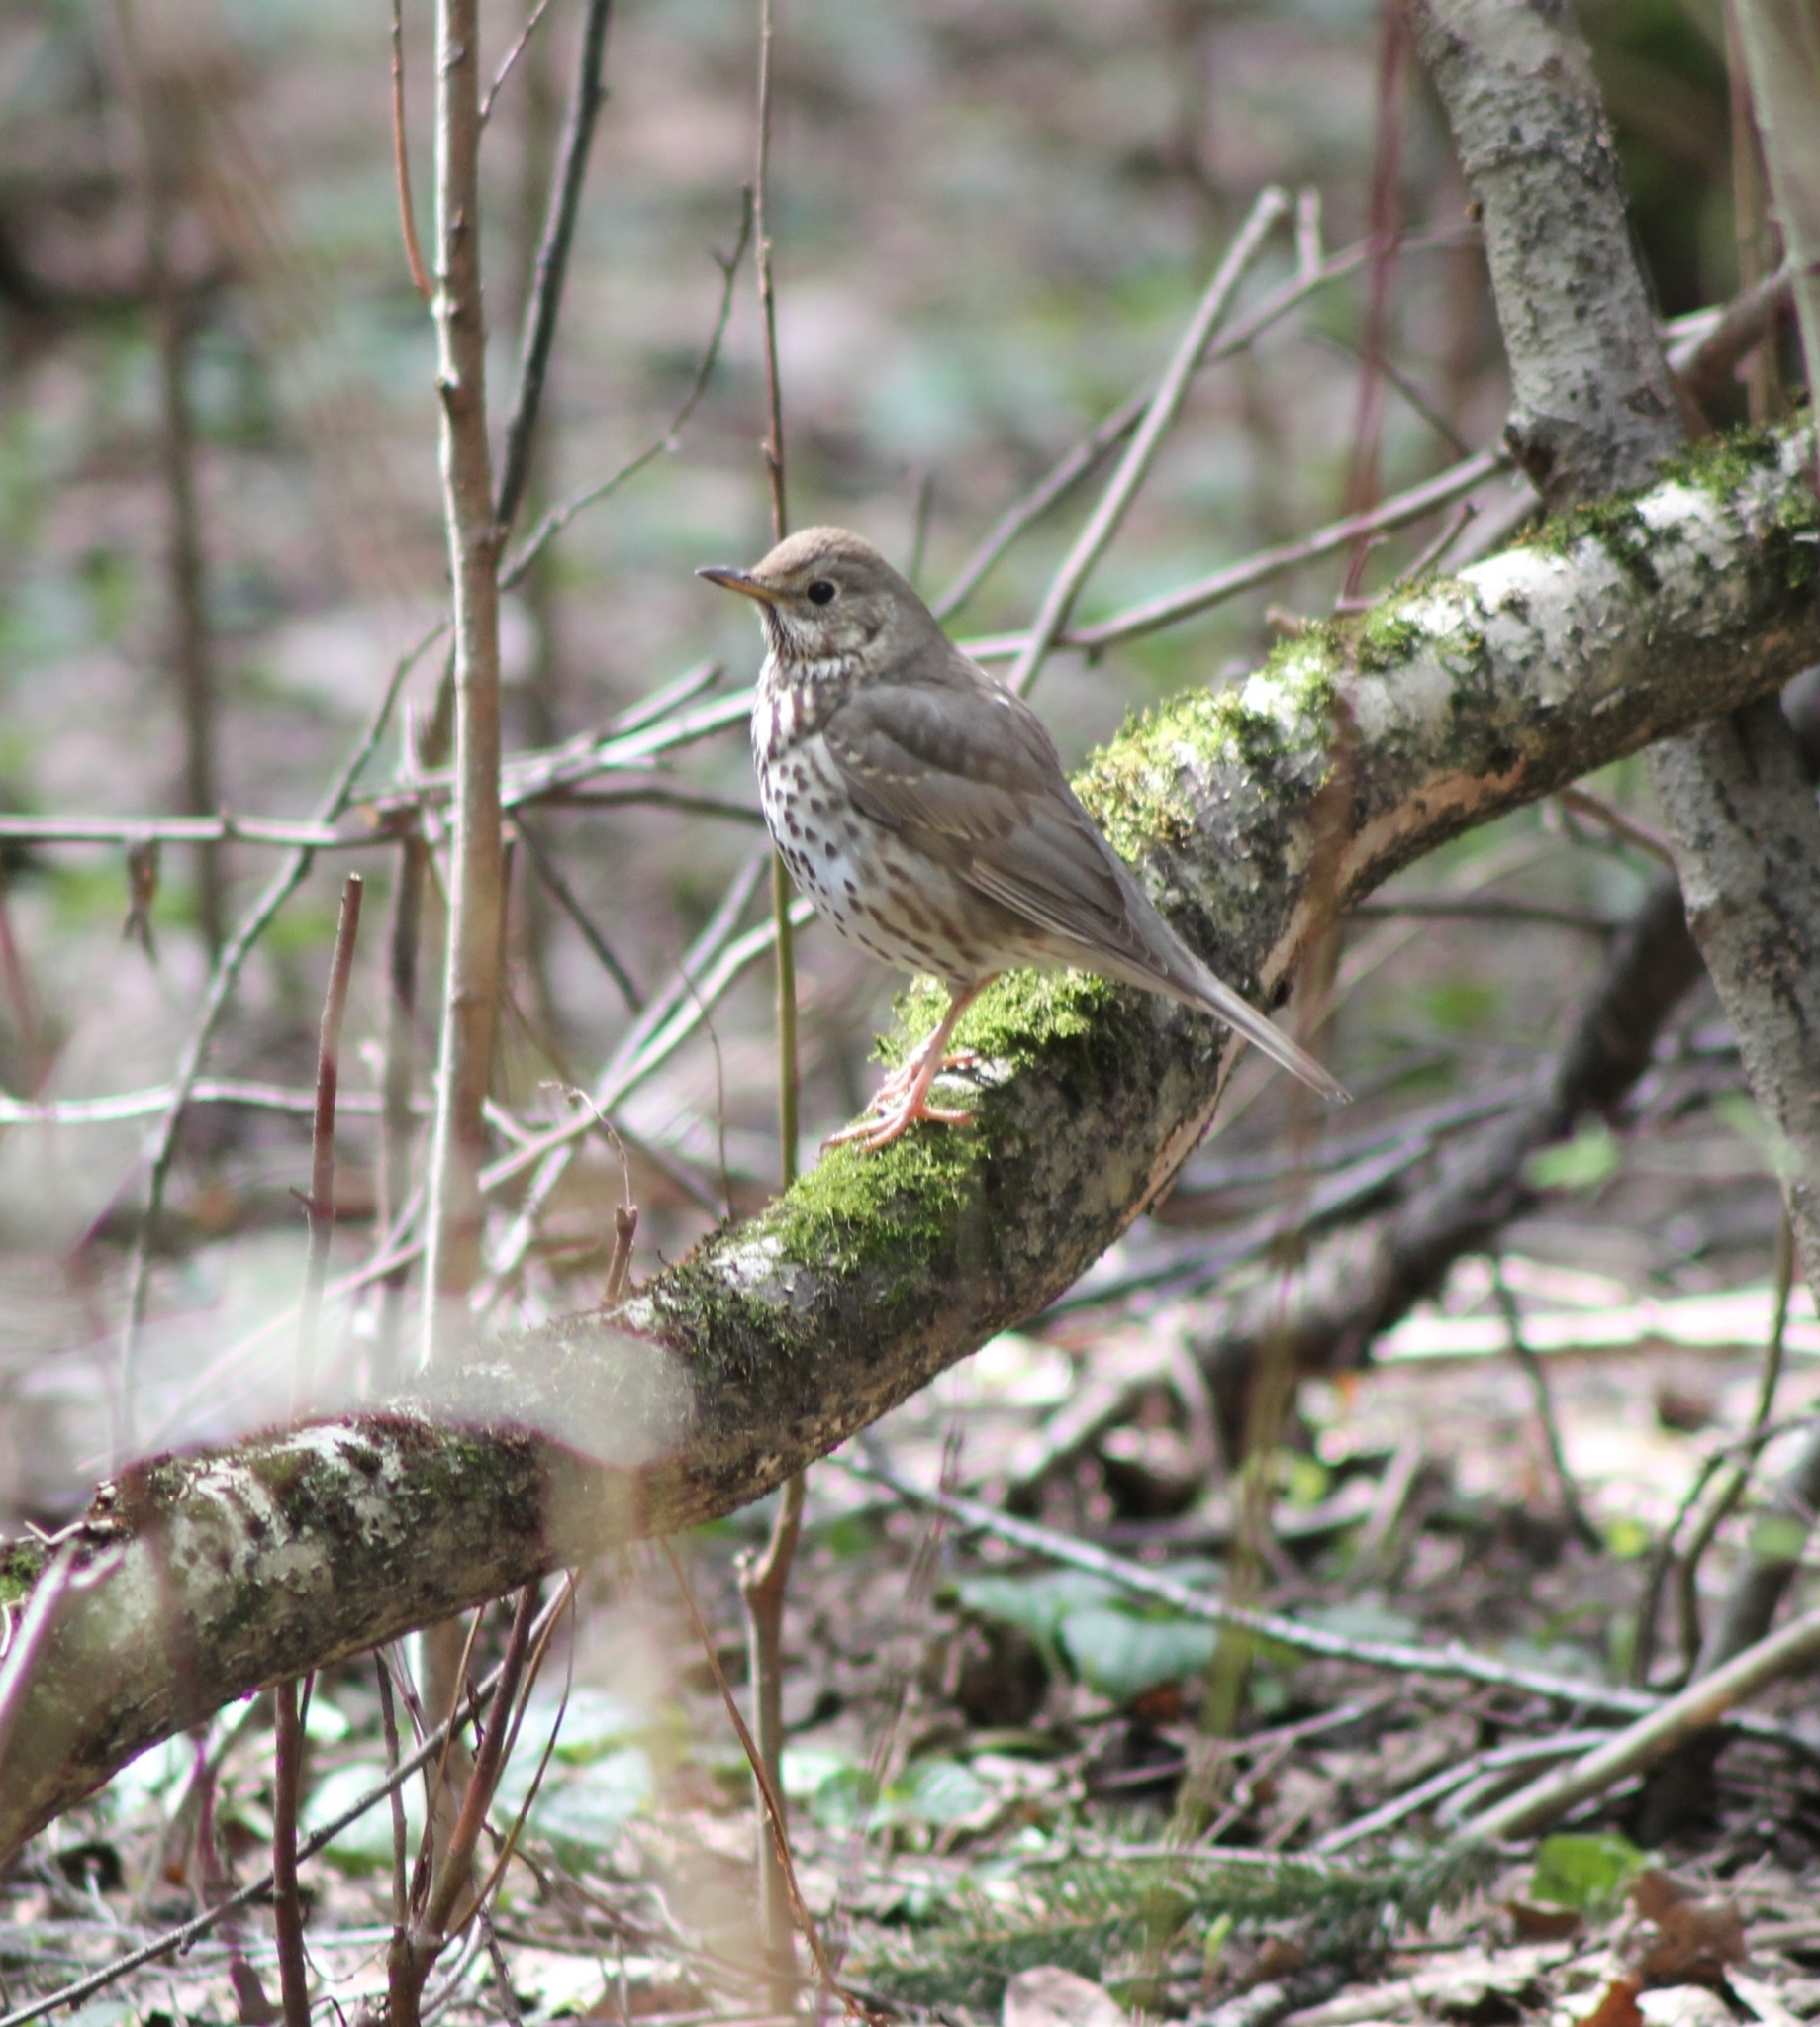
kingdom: Animalia
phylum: Chordata
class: Aves
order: Passeriformes
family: Turdidae
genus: Turdus
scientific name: Turdus philomelos
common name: Song thrush
